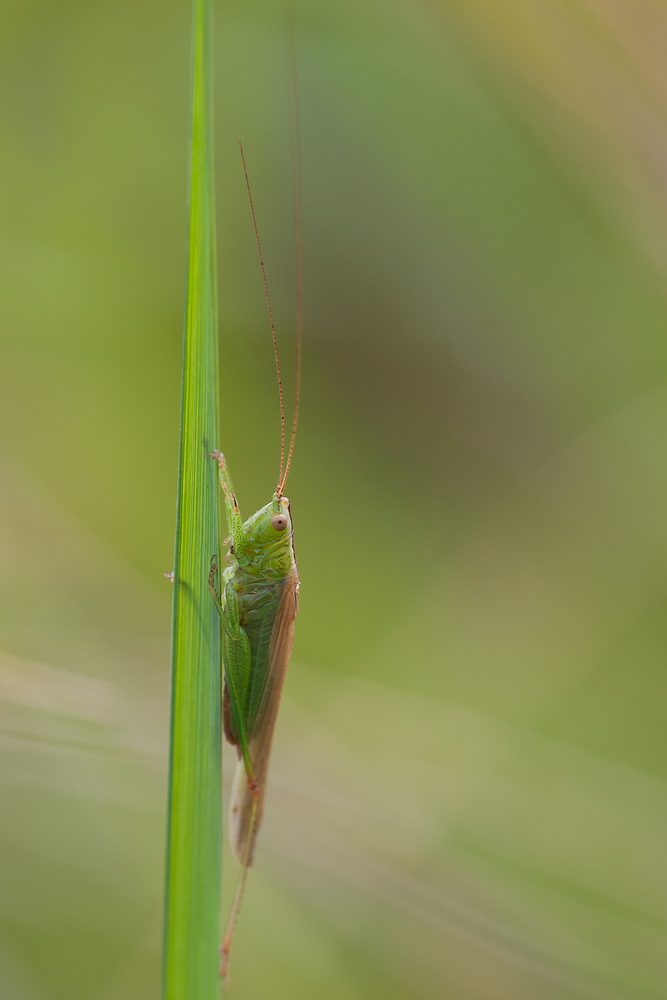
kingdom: Animalia
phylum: Arthropoda
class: Insecta
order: Orthoptera
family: Tettigoniidae
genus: Conocephalus
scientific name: Conocephalus fuscus
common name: Long-winged conehead
